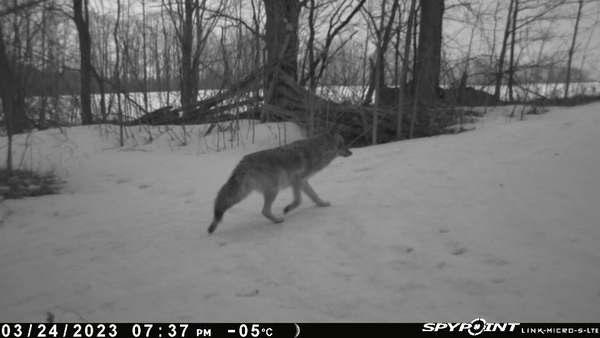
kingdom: Animalia
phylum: Chordata
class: Mammalia
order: Carnivora
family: Canidae
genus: Canis
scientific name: Canis latrans
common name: Coyote
